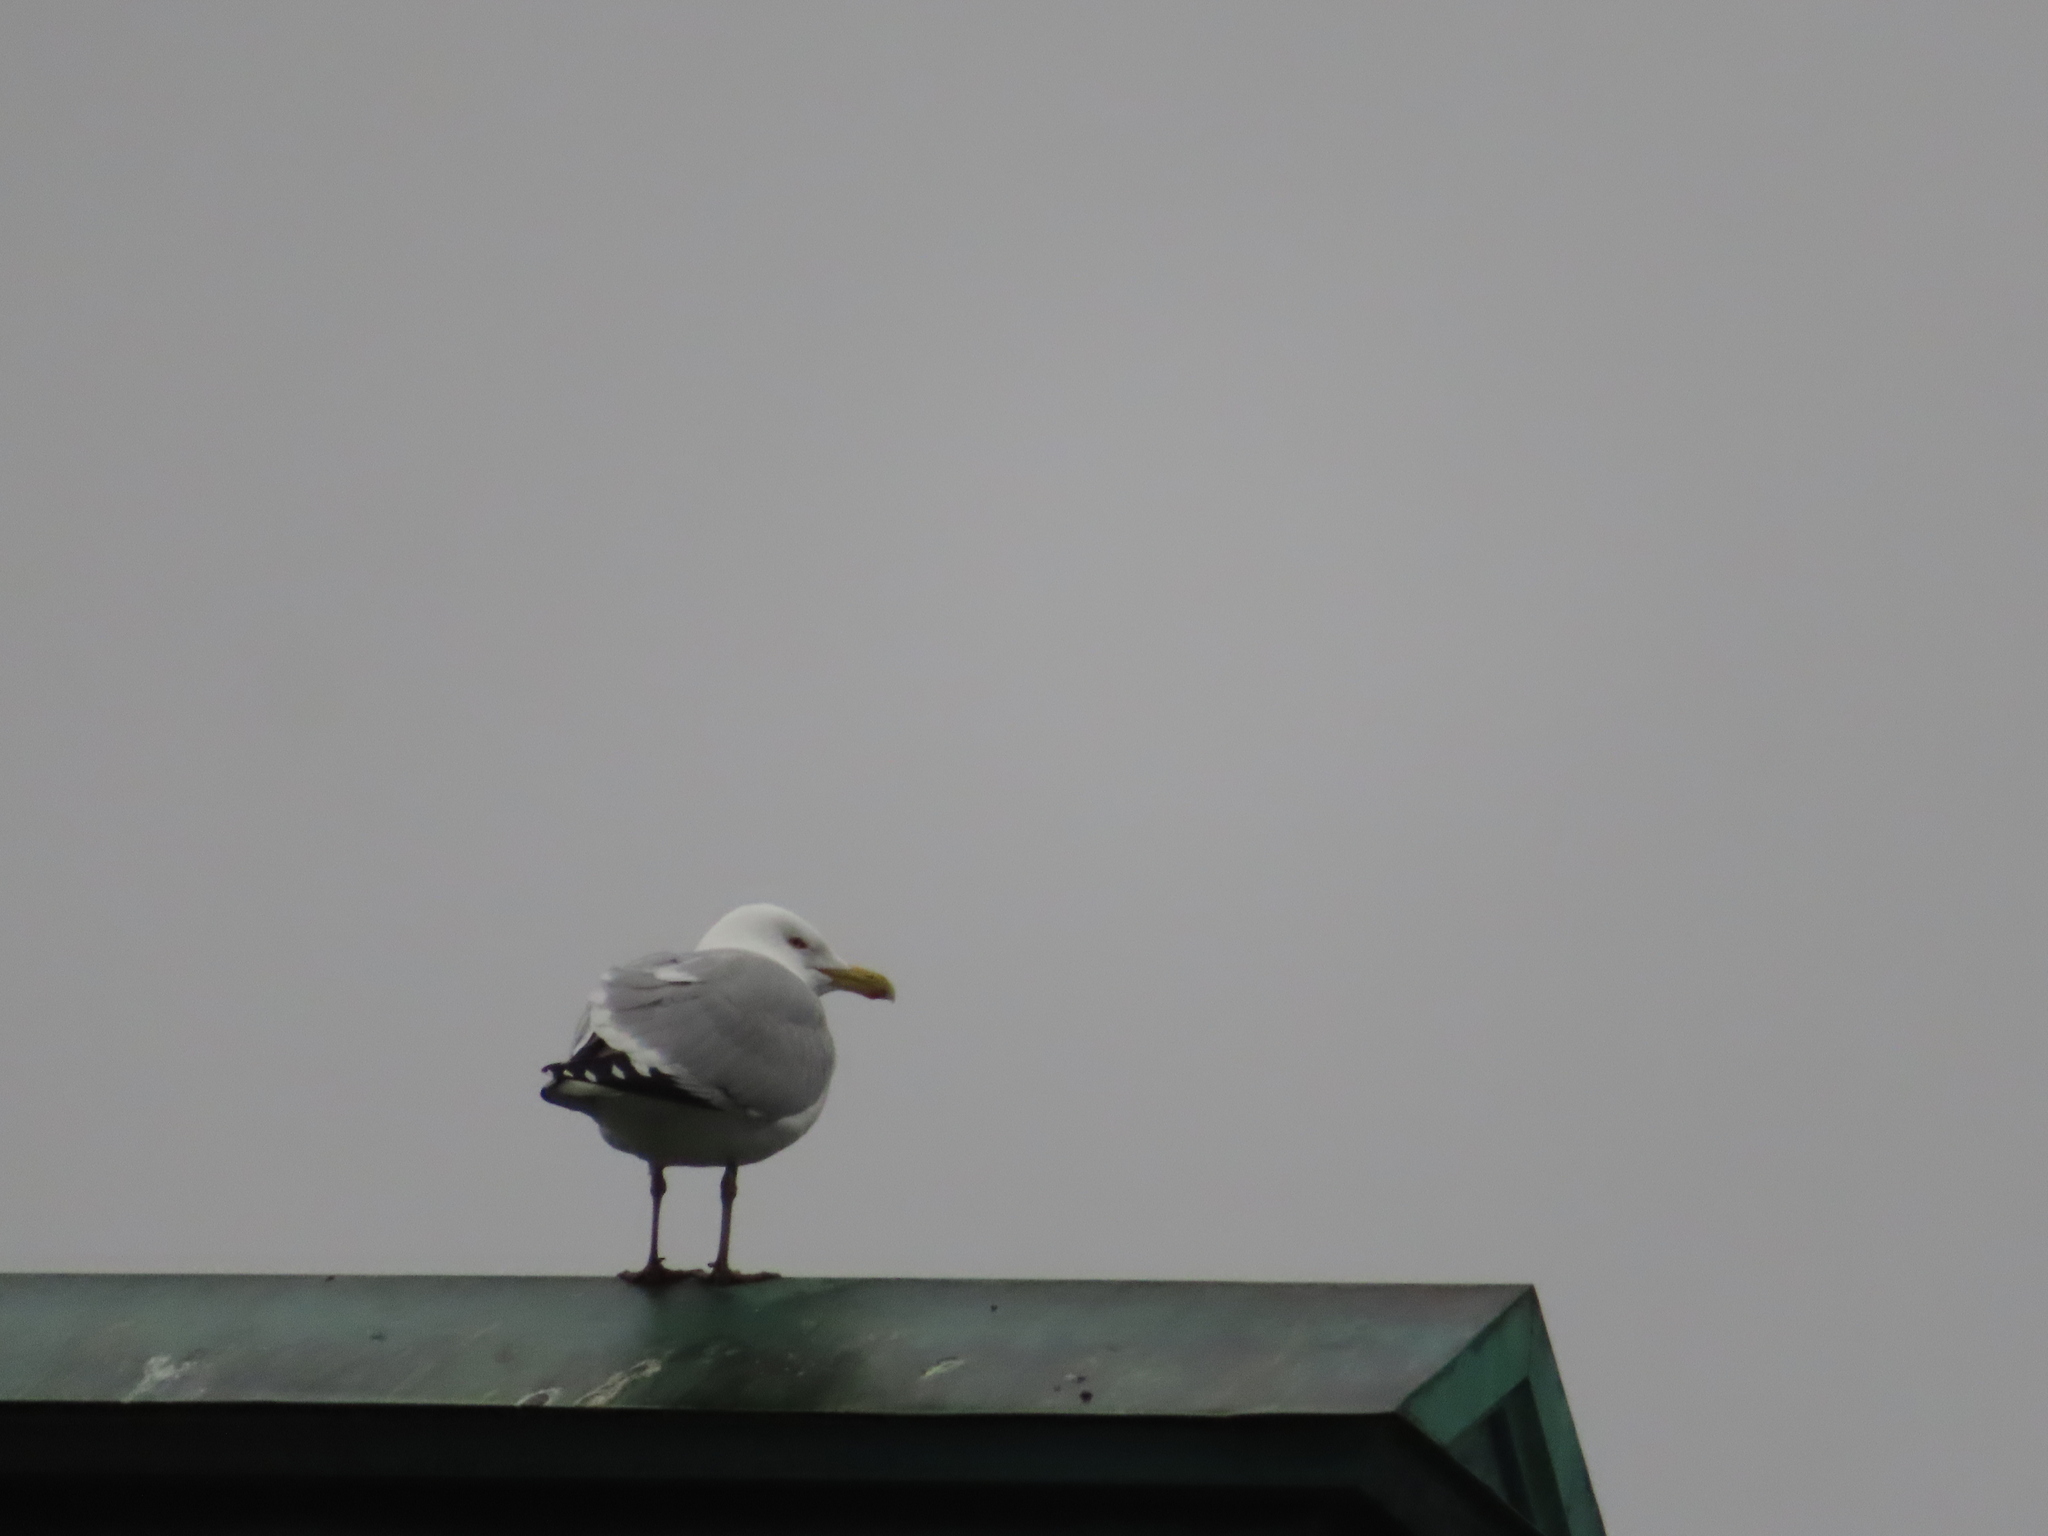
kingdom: Animalia
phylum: Chordata
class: Aves
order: Charadriiformes
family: Laridae
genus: Larus
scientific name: Larus argentatus
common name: Herring gull
